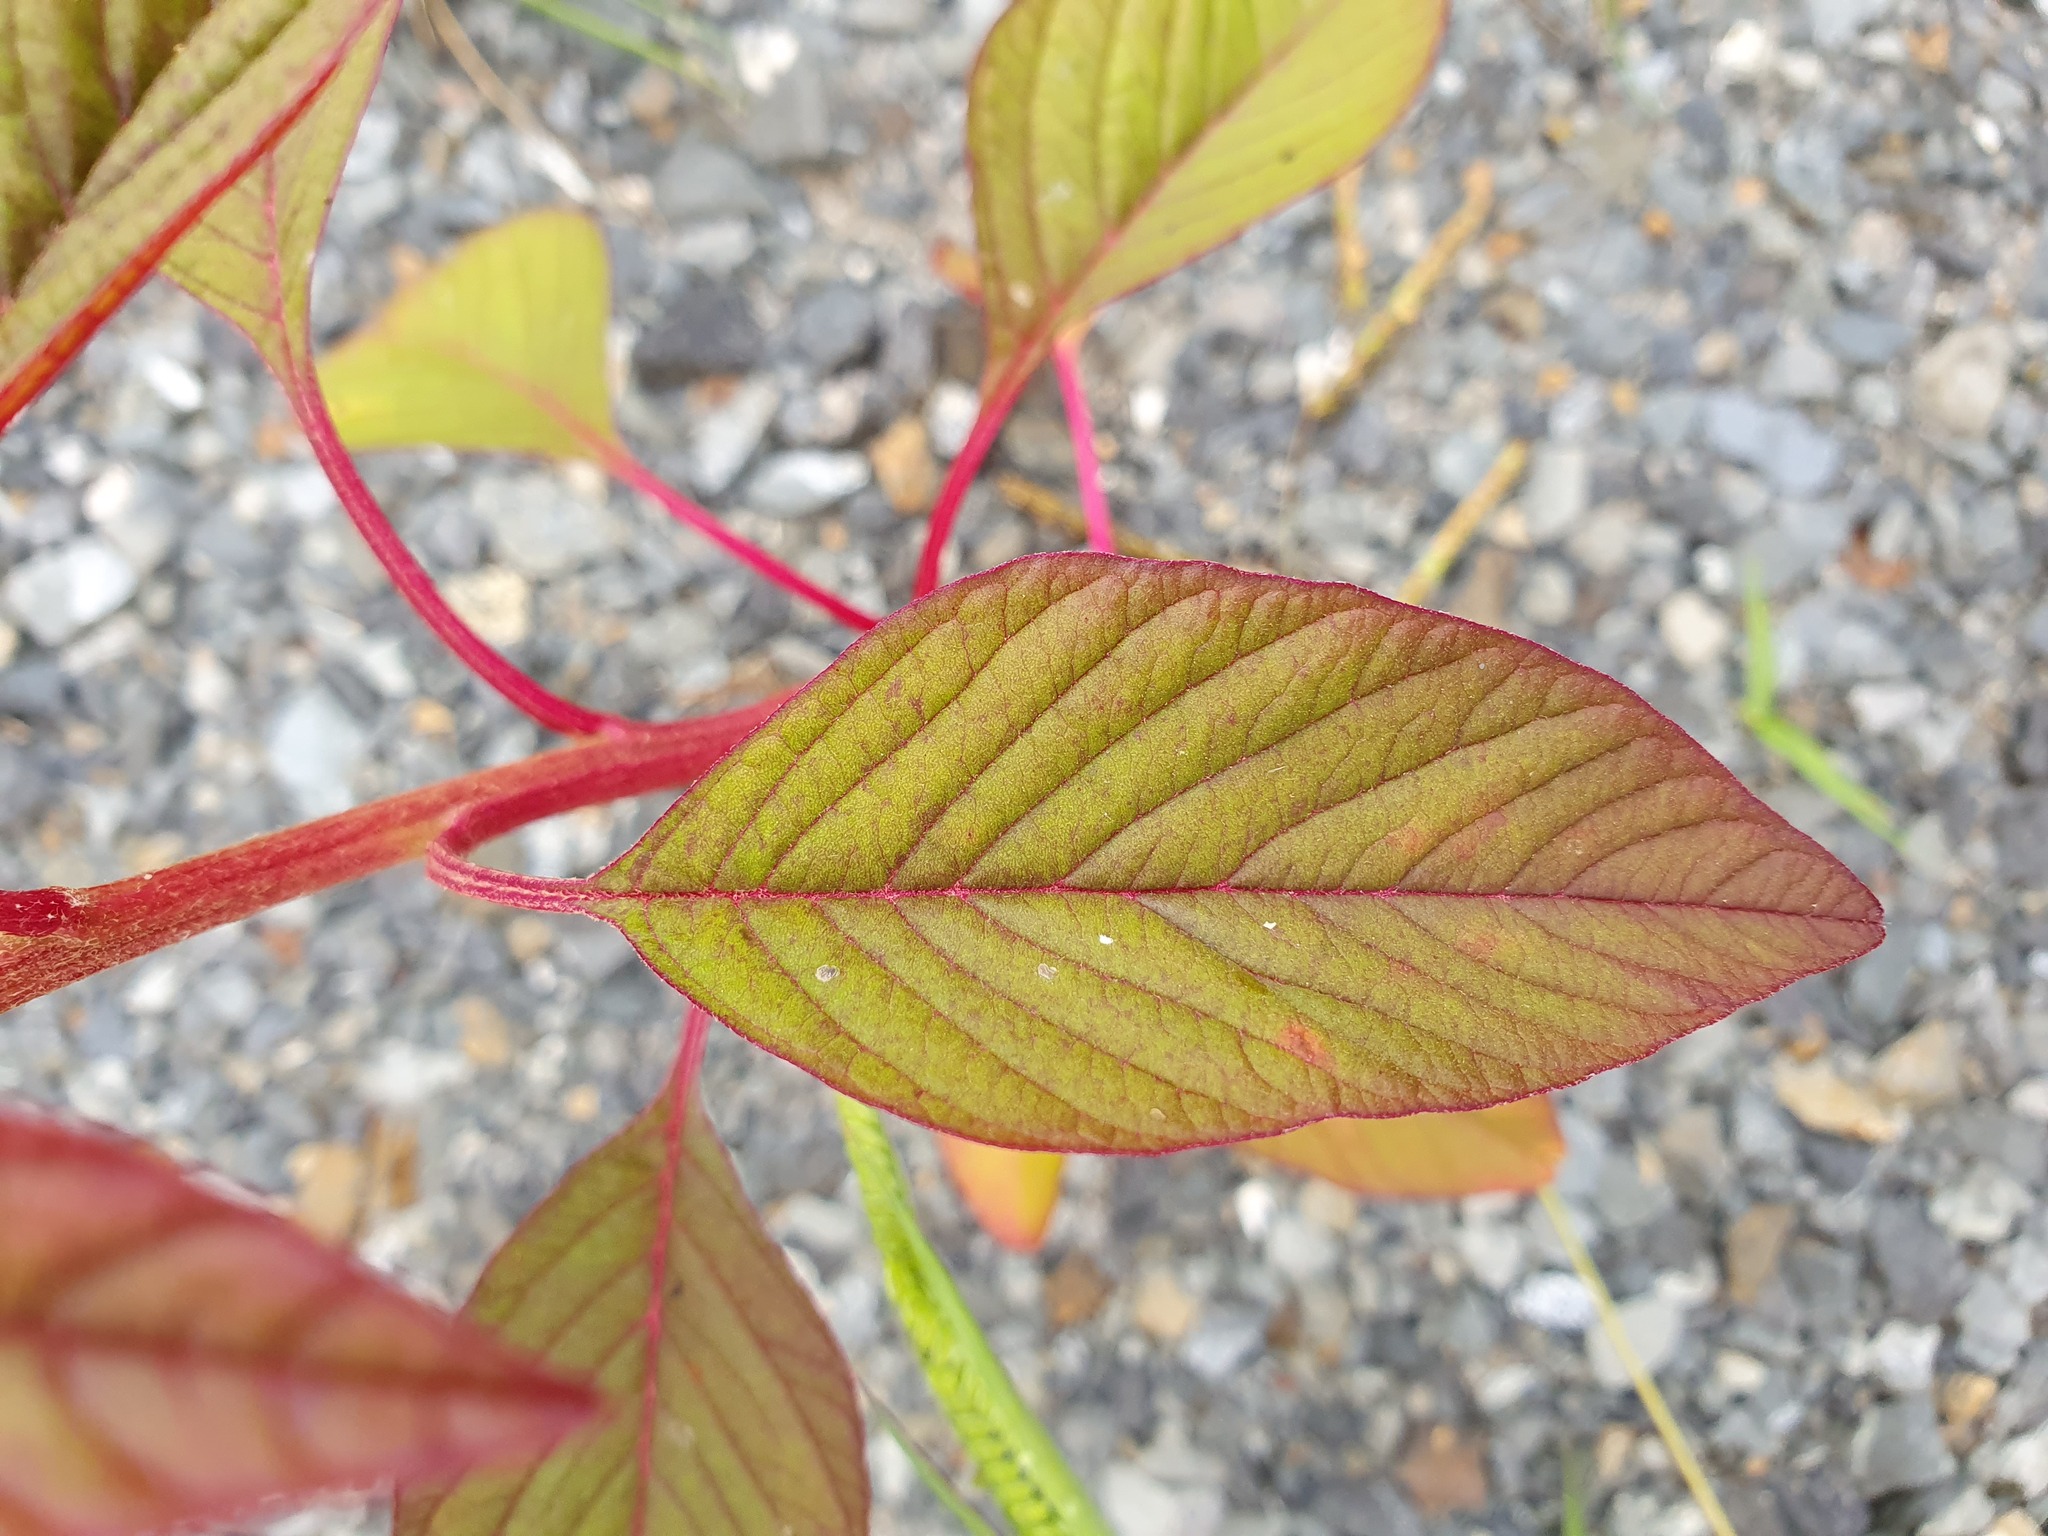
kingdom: Plantae
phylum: Tracheophyta
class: Magnoliopsida
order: Caryophyllales
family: Amaranthaceae
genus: Amaranthus
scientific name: Amaranthus cruentus
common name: Purple amaranth
